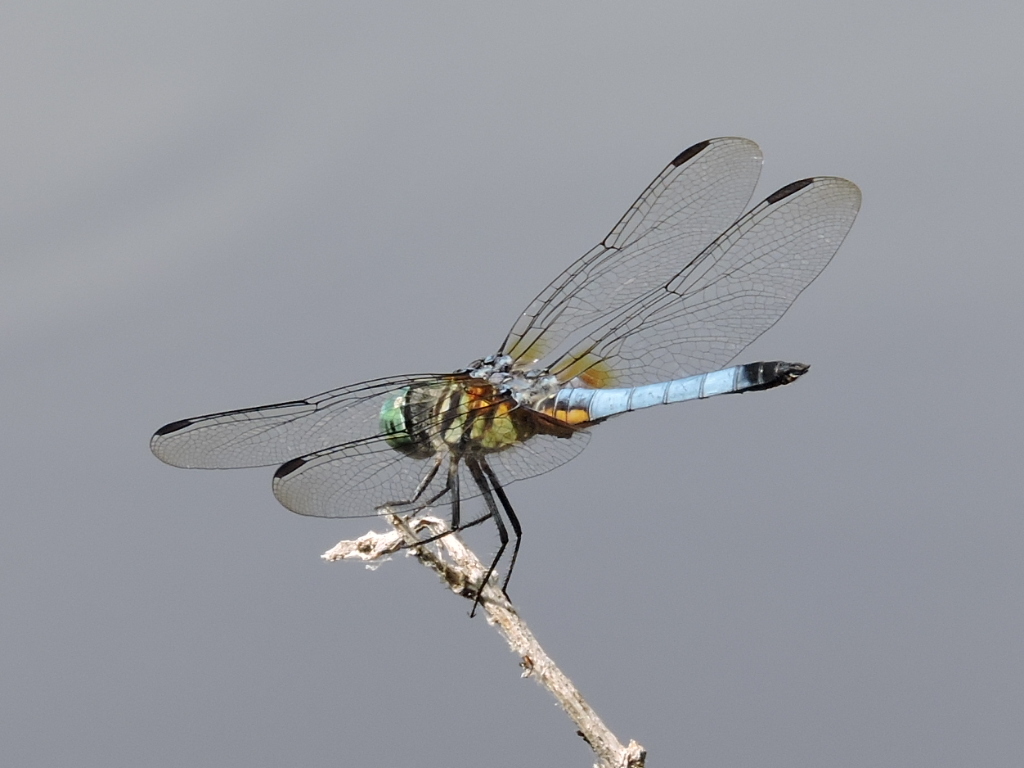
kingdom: Animalia
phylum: Arthropoda
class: Insecta
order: Odonata
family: Libellulidae
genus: Pachydiplax
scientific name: Pachydiplax longipennis
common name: Blue dasher
